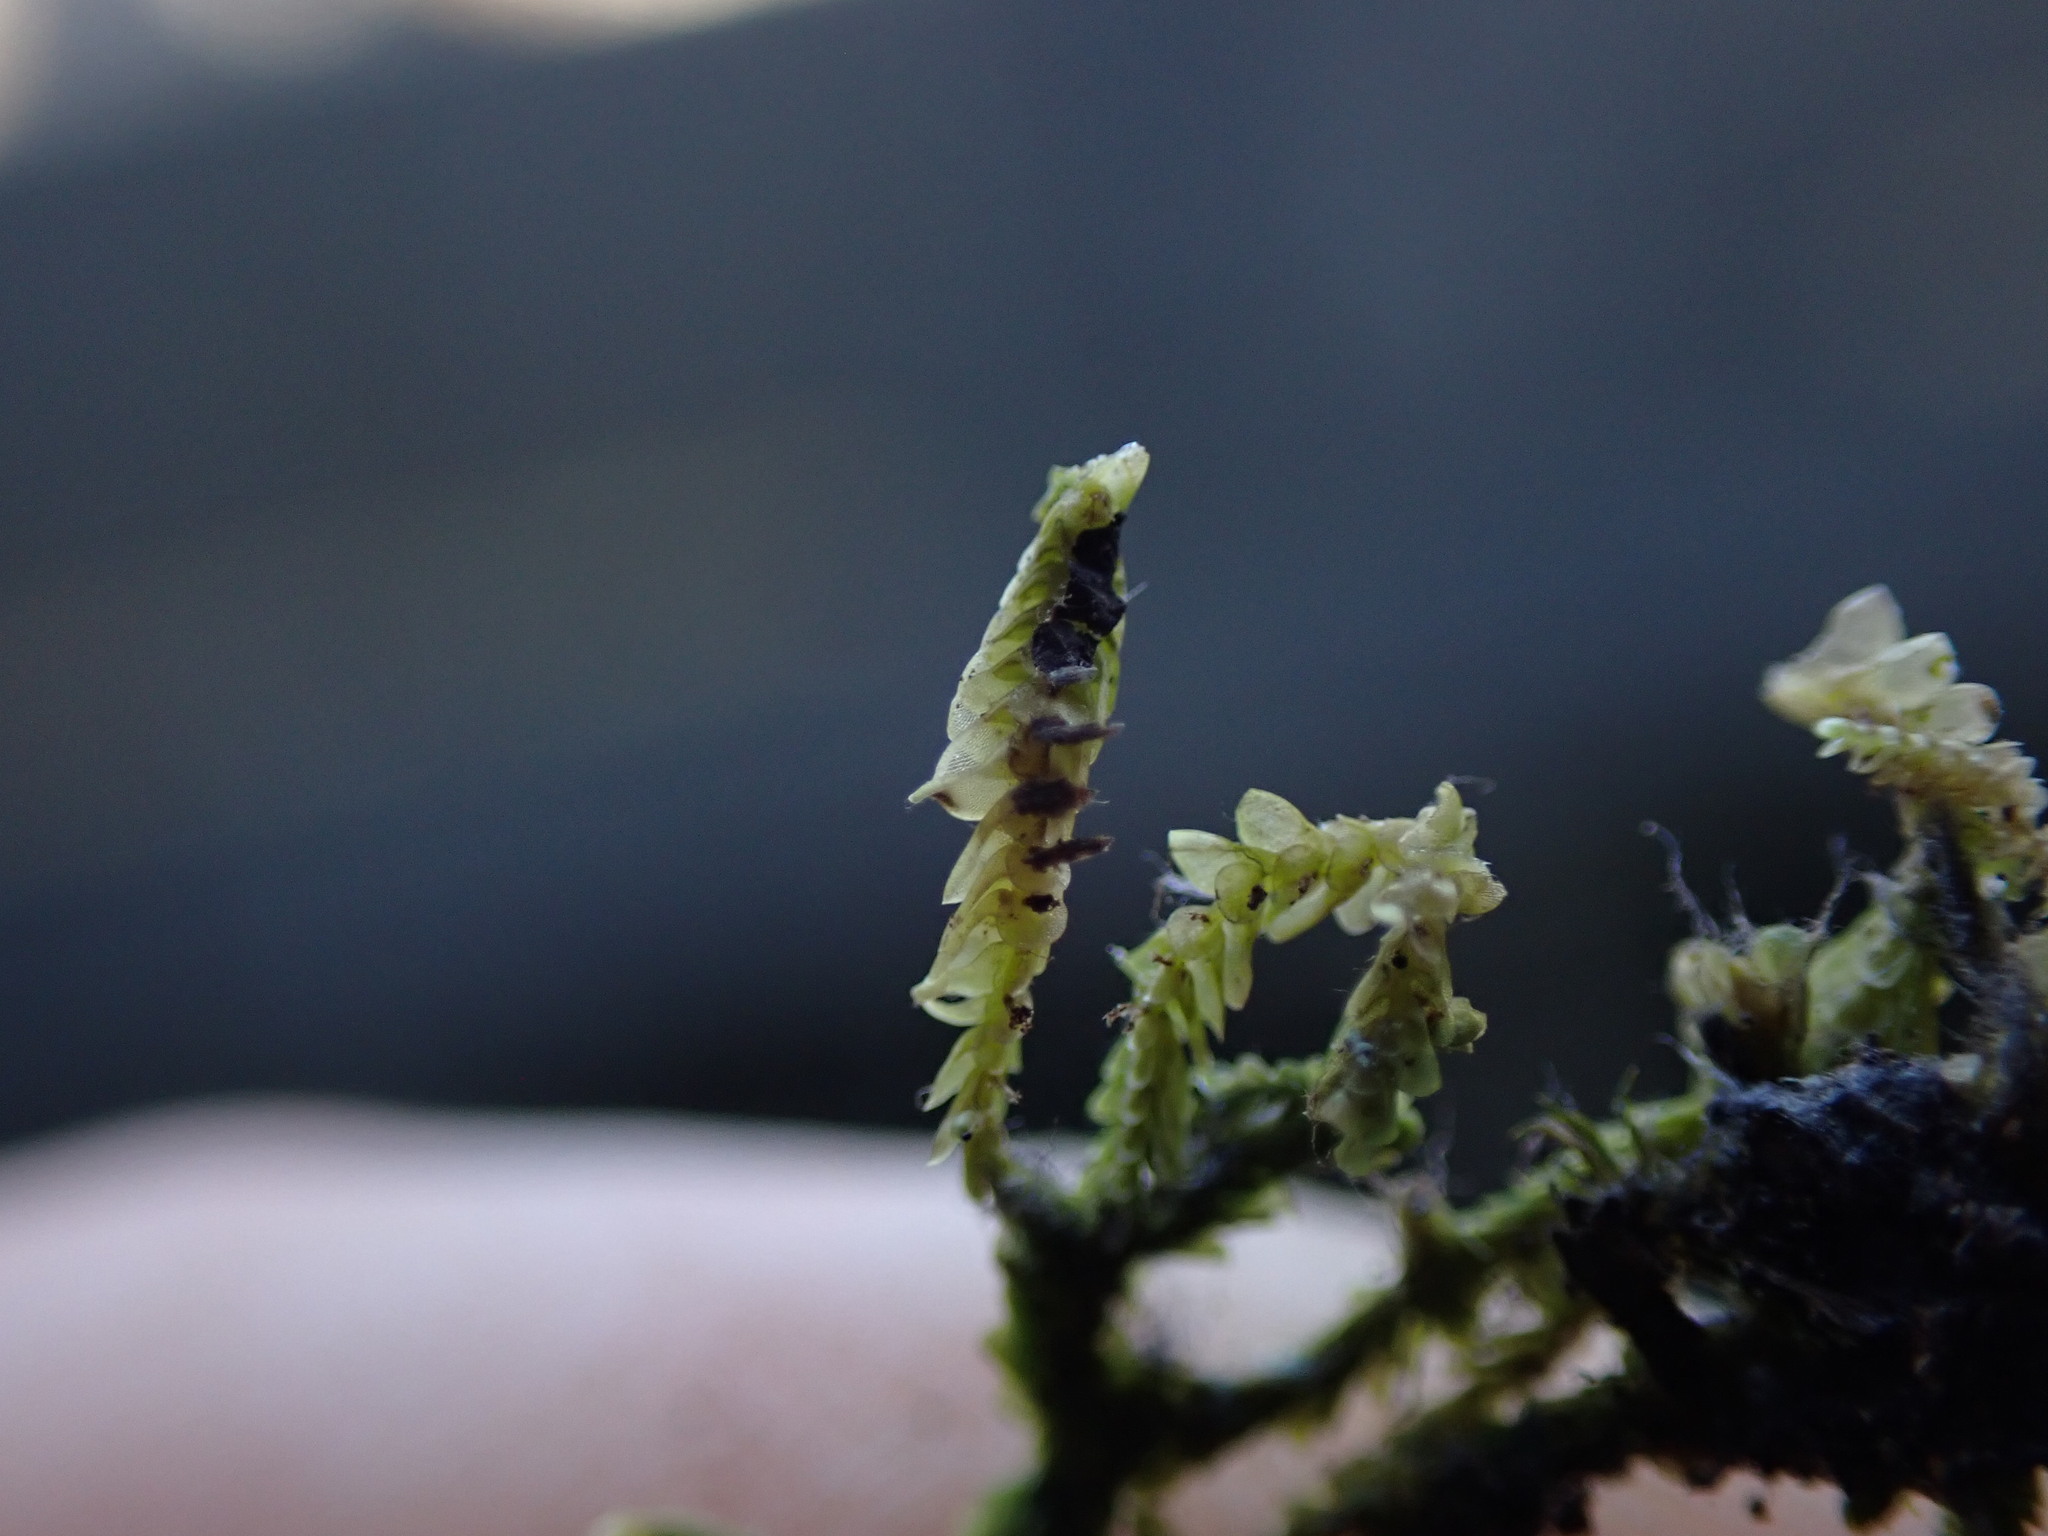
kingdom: Plantae
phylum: Marchantiophyta
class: Jungermanniopsida
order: Porellales
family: Lejeuneaceae
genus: Acrolejeunea
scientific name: Acrolejeunea sandvicensis
